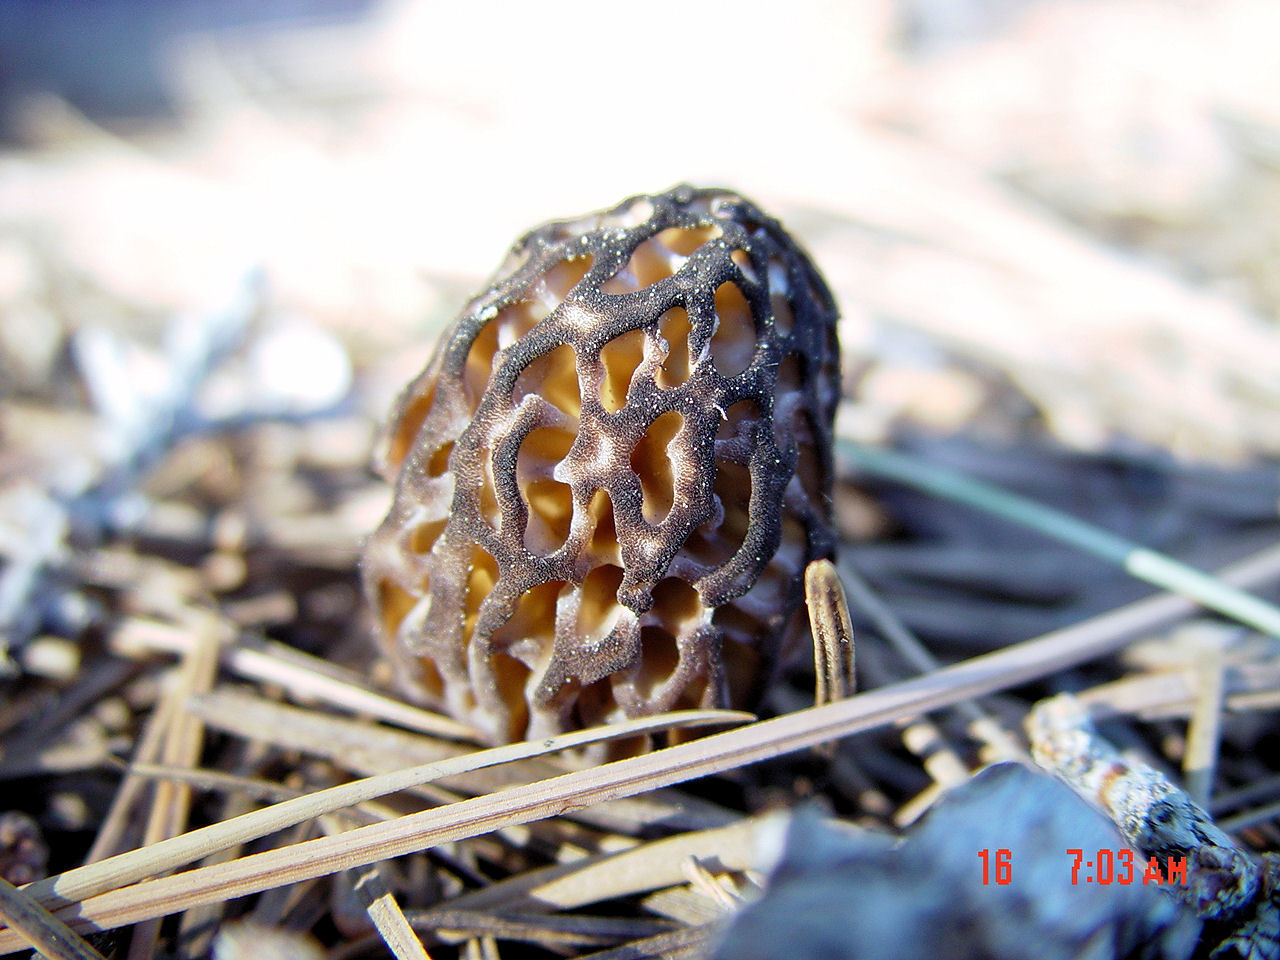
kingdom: Fungi
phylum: Ascomycota
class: Pezizomycetes
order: Pezizales
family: Morchellaceae
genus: Morchella
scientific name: Morchella snyderi
